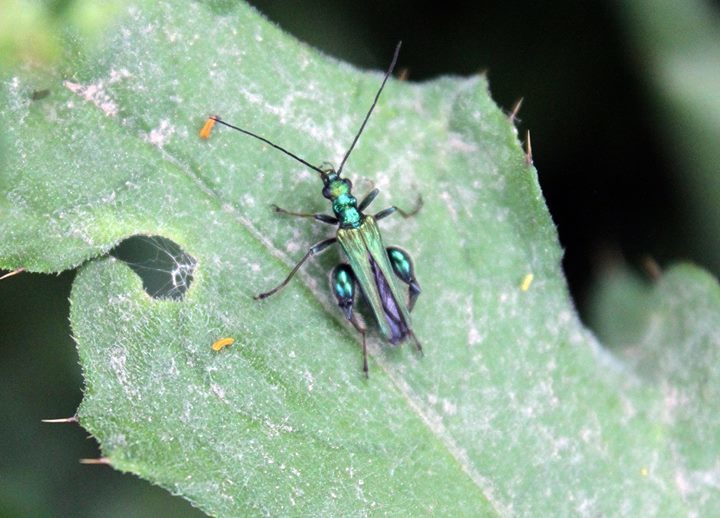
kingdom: Animalia
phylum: Arthropoda
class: Insecta
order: Coleoptera
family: Oedemeridae
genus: Oedemera
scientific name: Oedemera nobilis
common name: Swollen-thighed beetle
